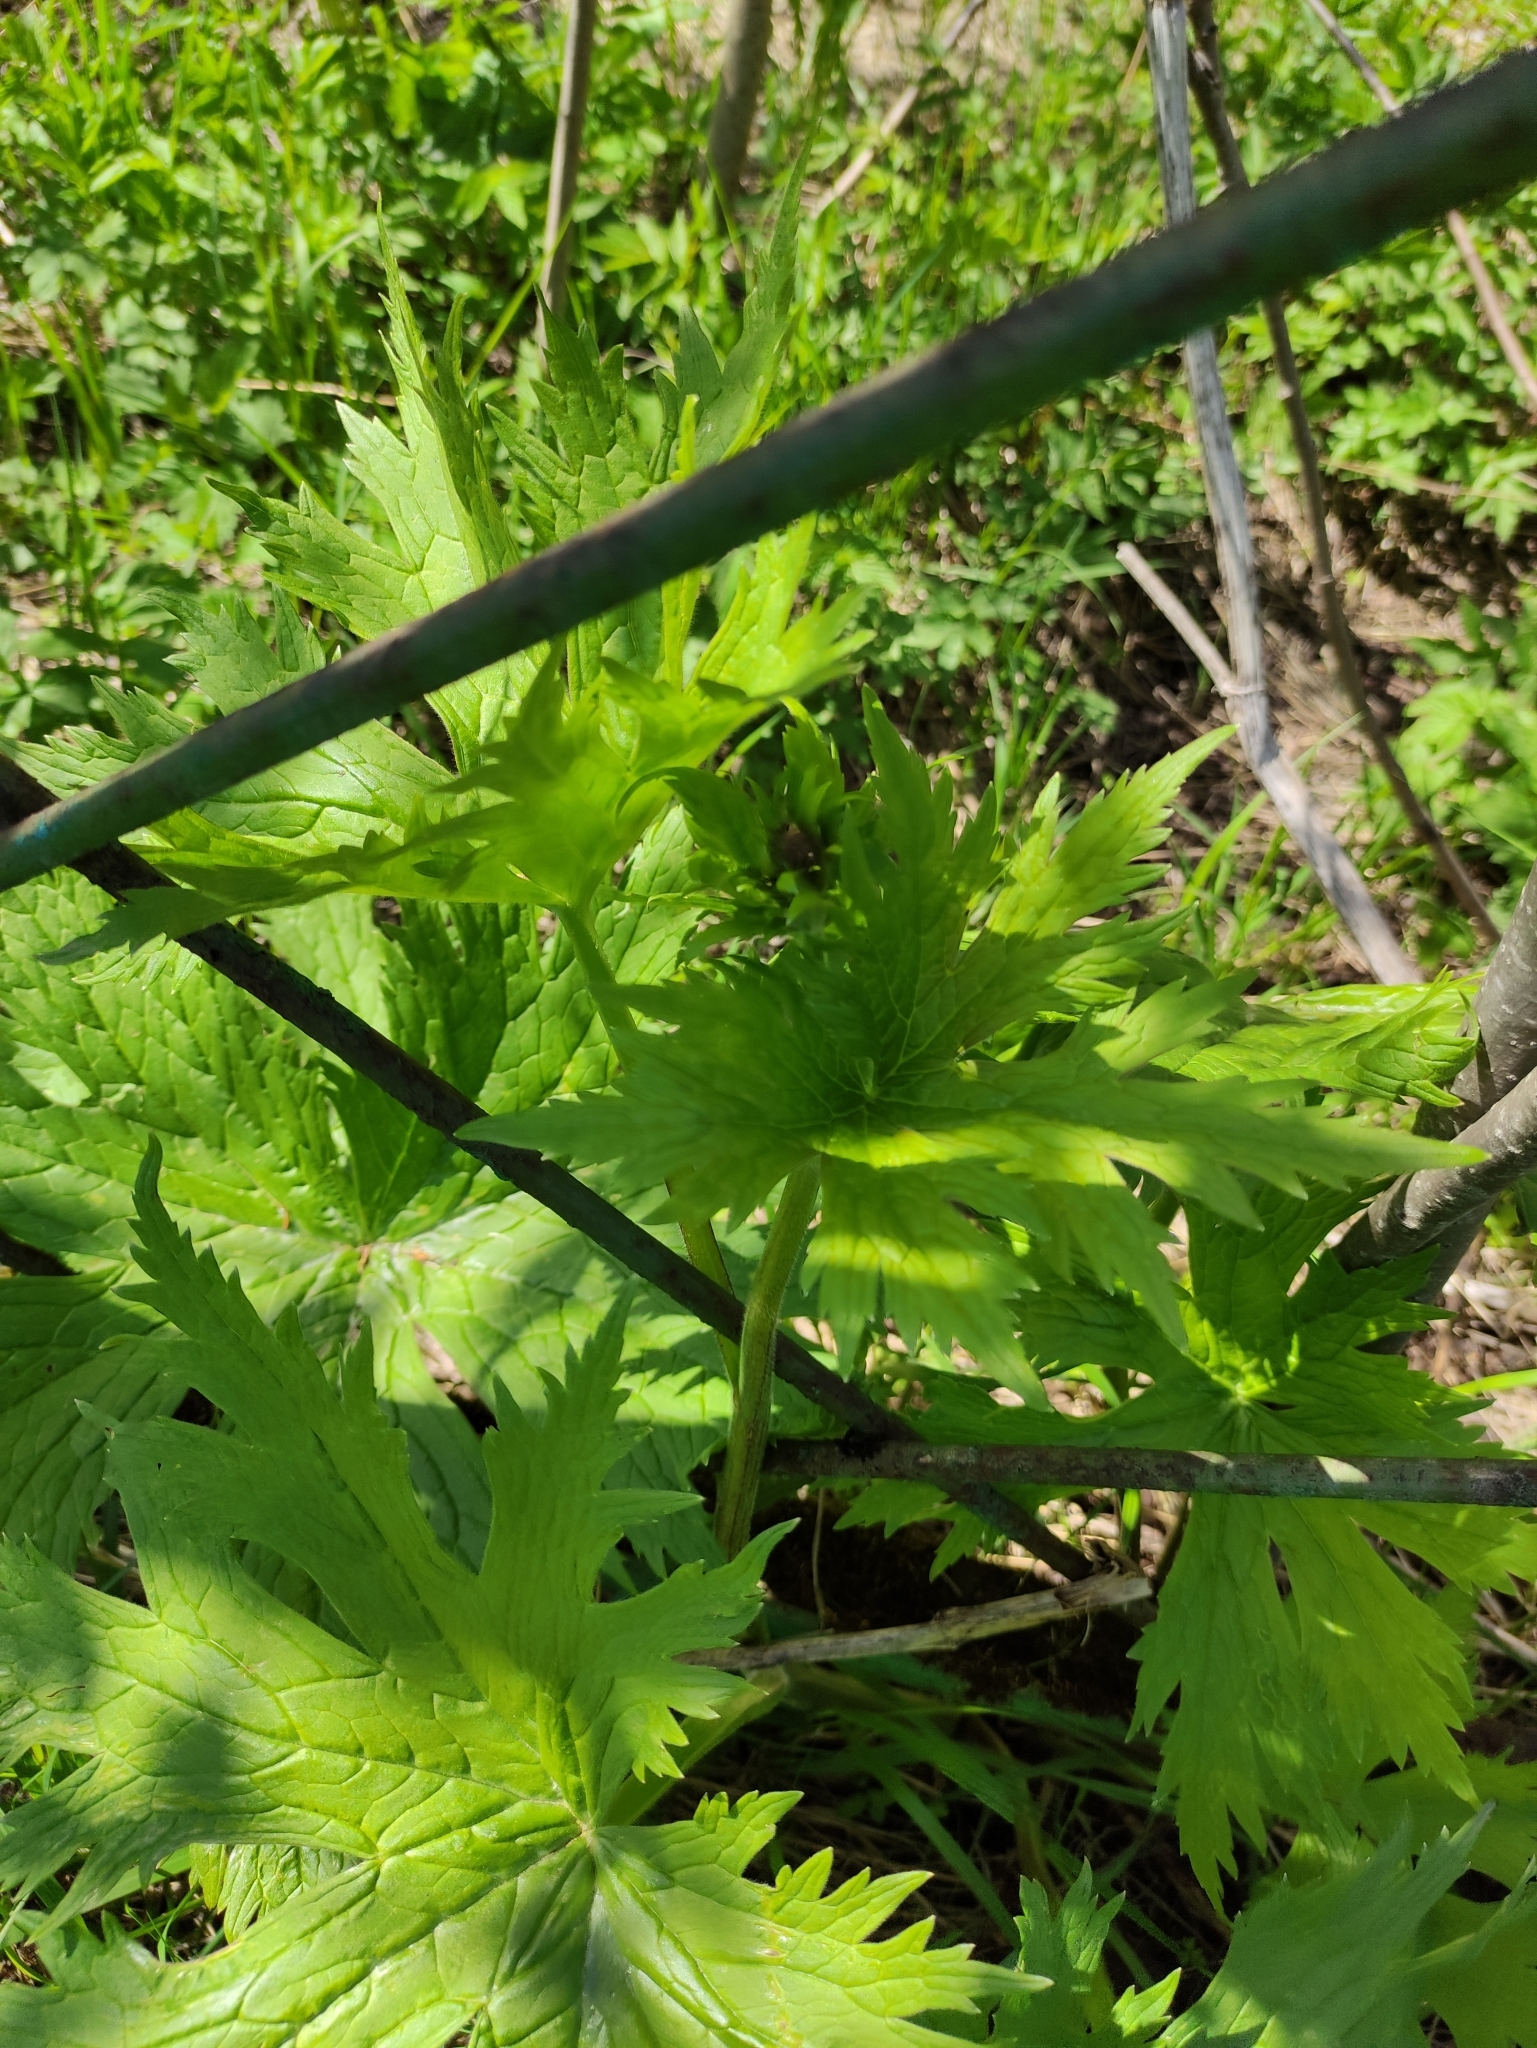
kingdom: Plantae
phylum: Tracheophyta
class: Magnoliopsida
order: Ranunculales
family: Ranunculaceae
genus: Aconitum
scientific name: Aconitum septentrionale
